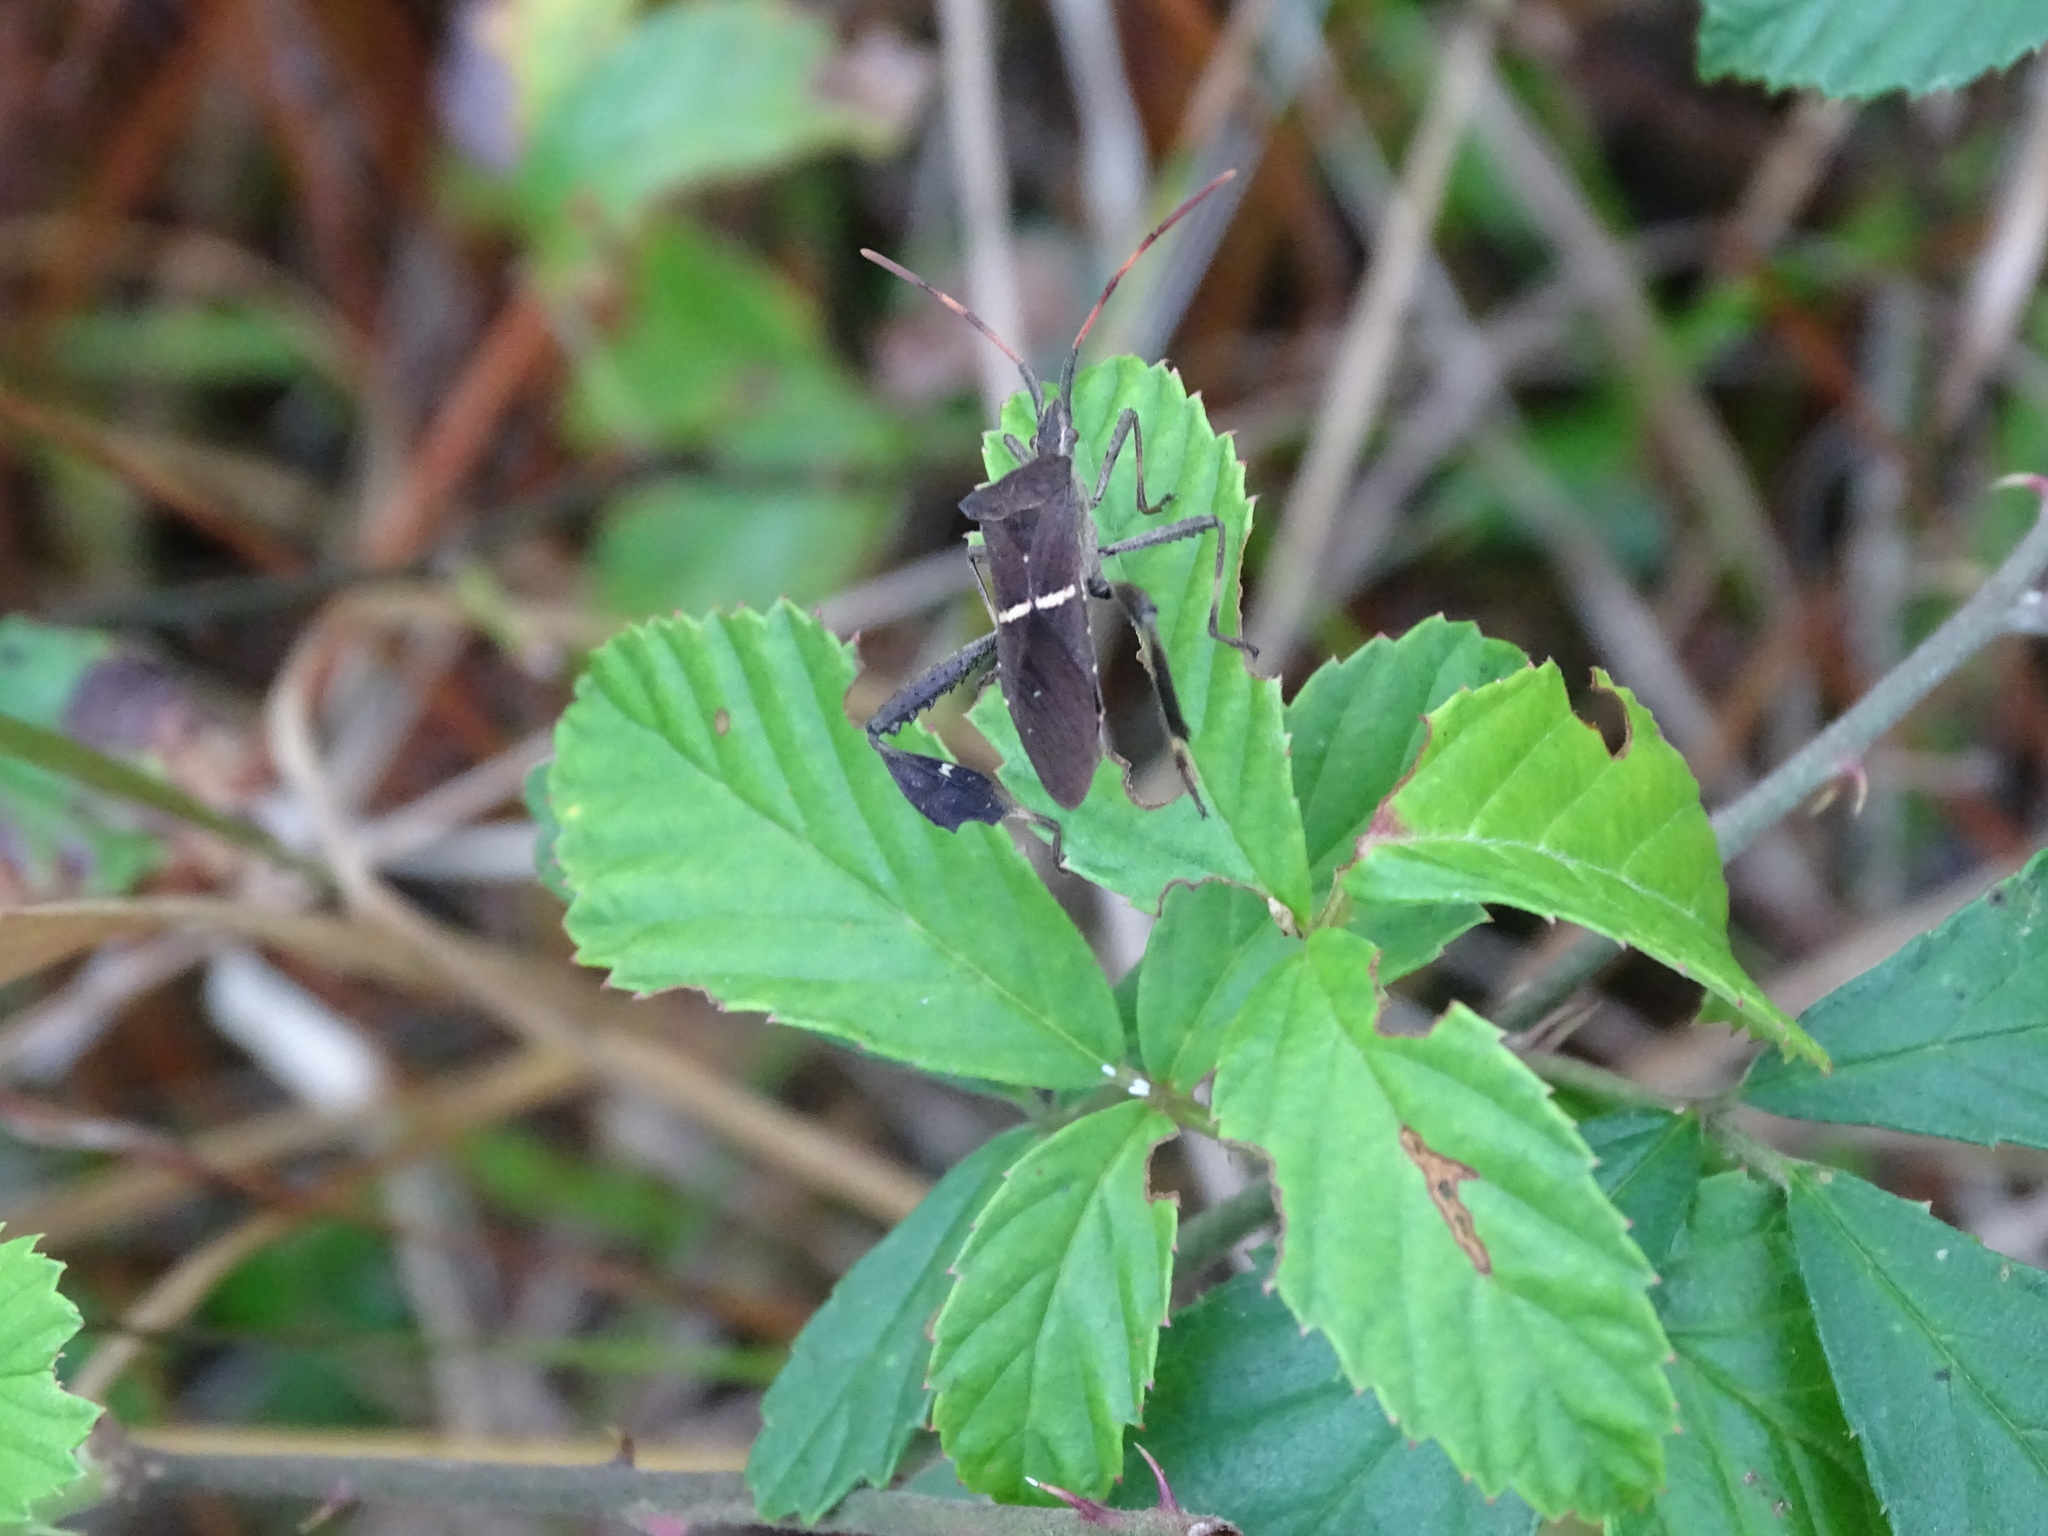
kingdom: Animalia
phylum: Arthropoda
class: Insecta
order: Hemiptera
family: Coreidae
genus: Leptoglossus
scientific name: Leptoglossus phyllopus
